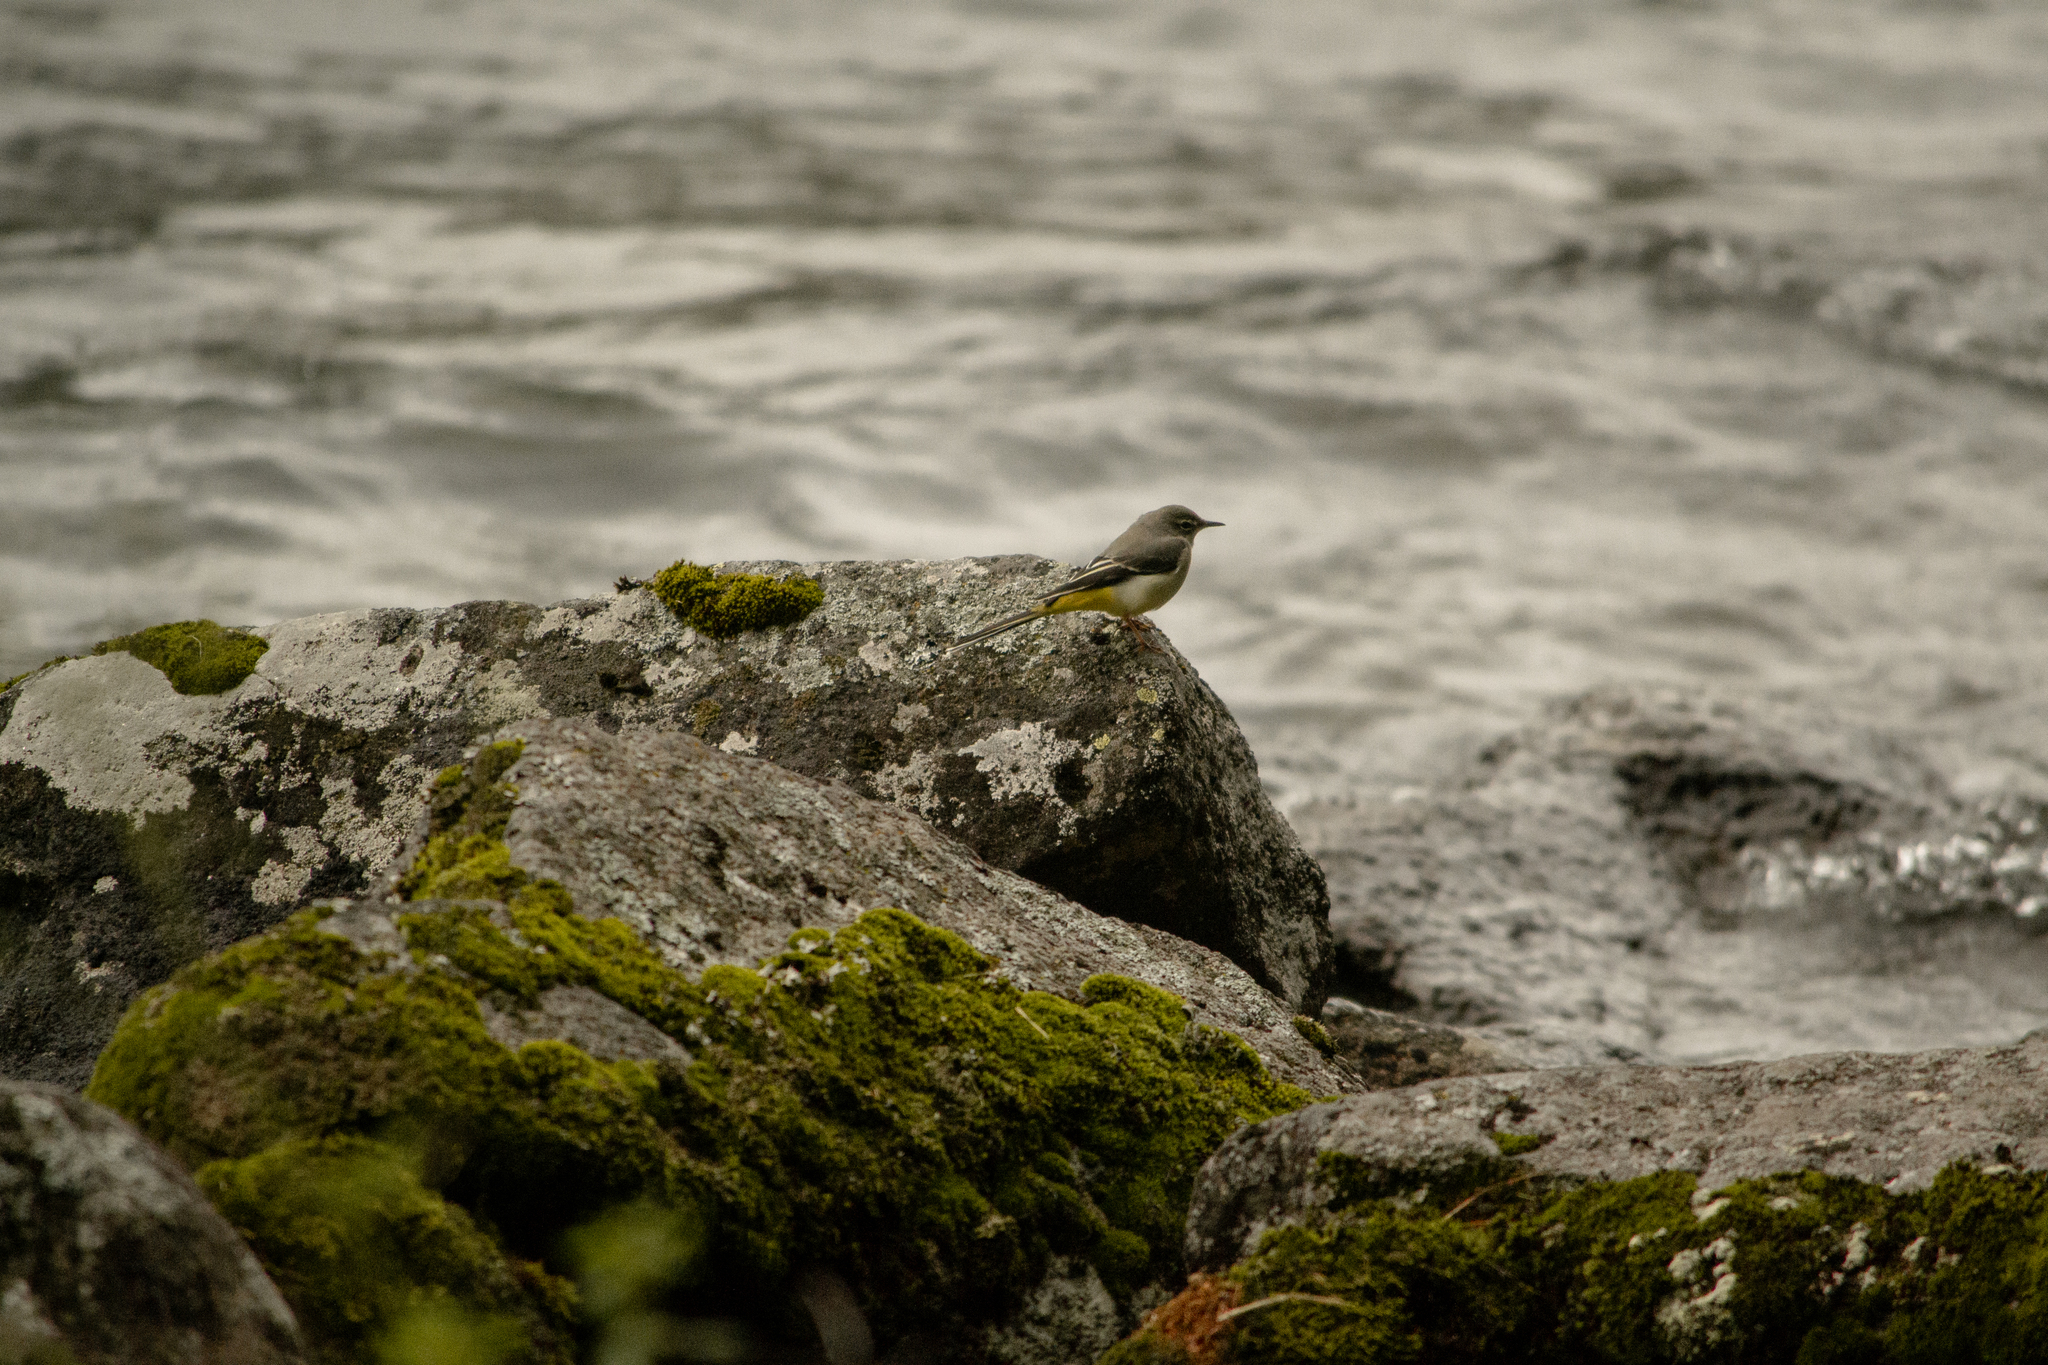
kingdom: Animalia
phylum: Chordata
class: Aves
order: Passeriformes
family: Motacillidae
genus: Motacilla
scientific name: Motacilla cinerea
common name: Grey wagtail
